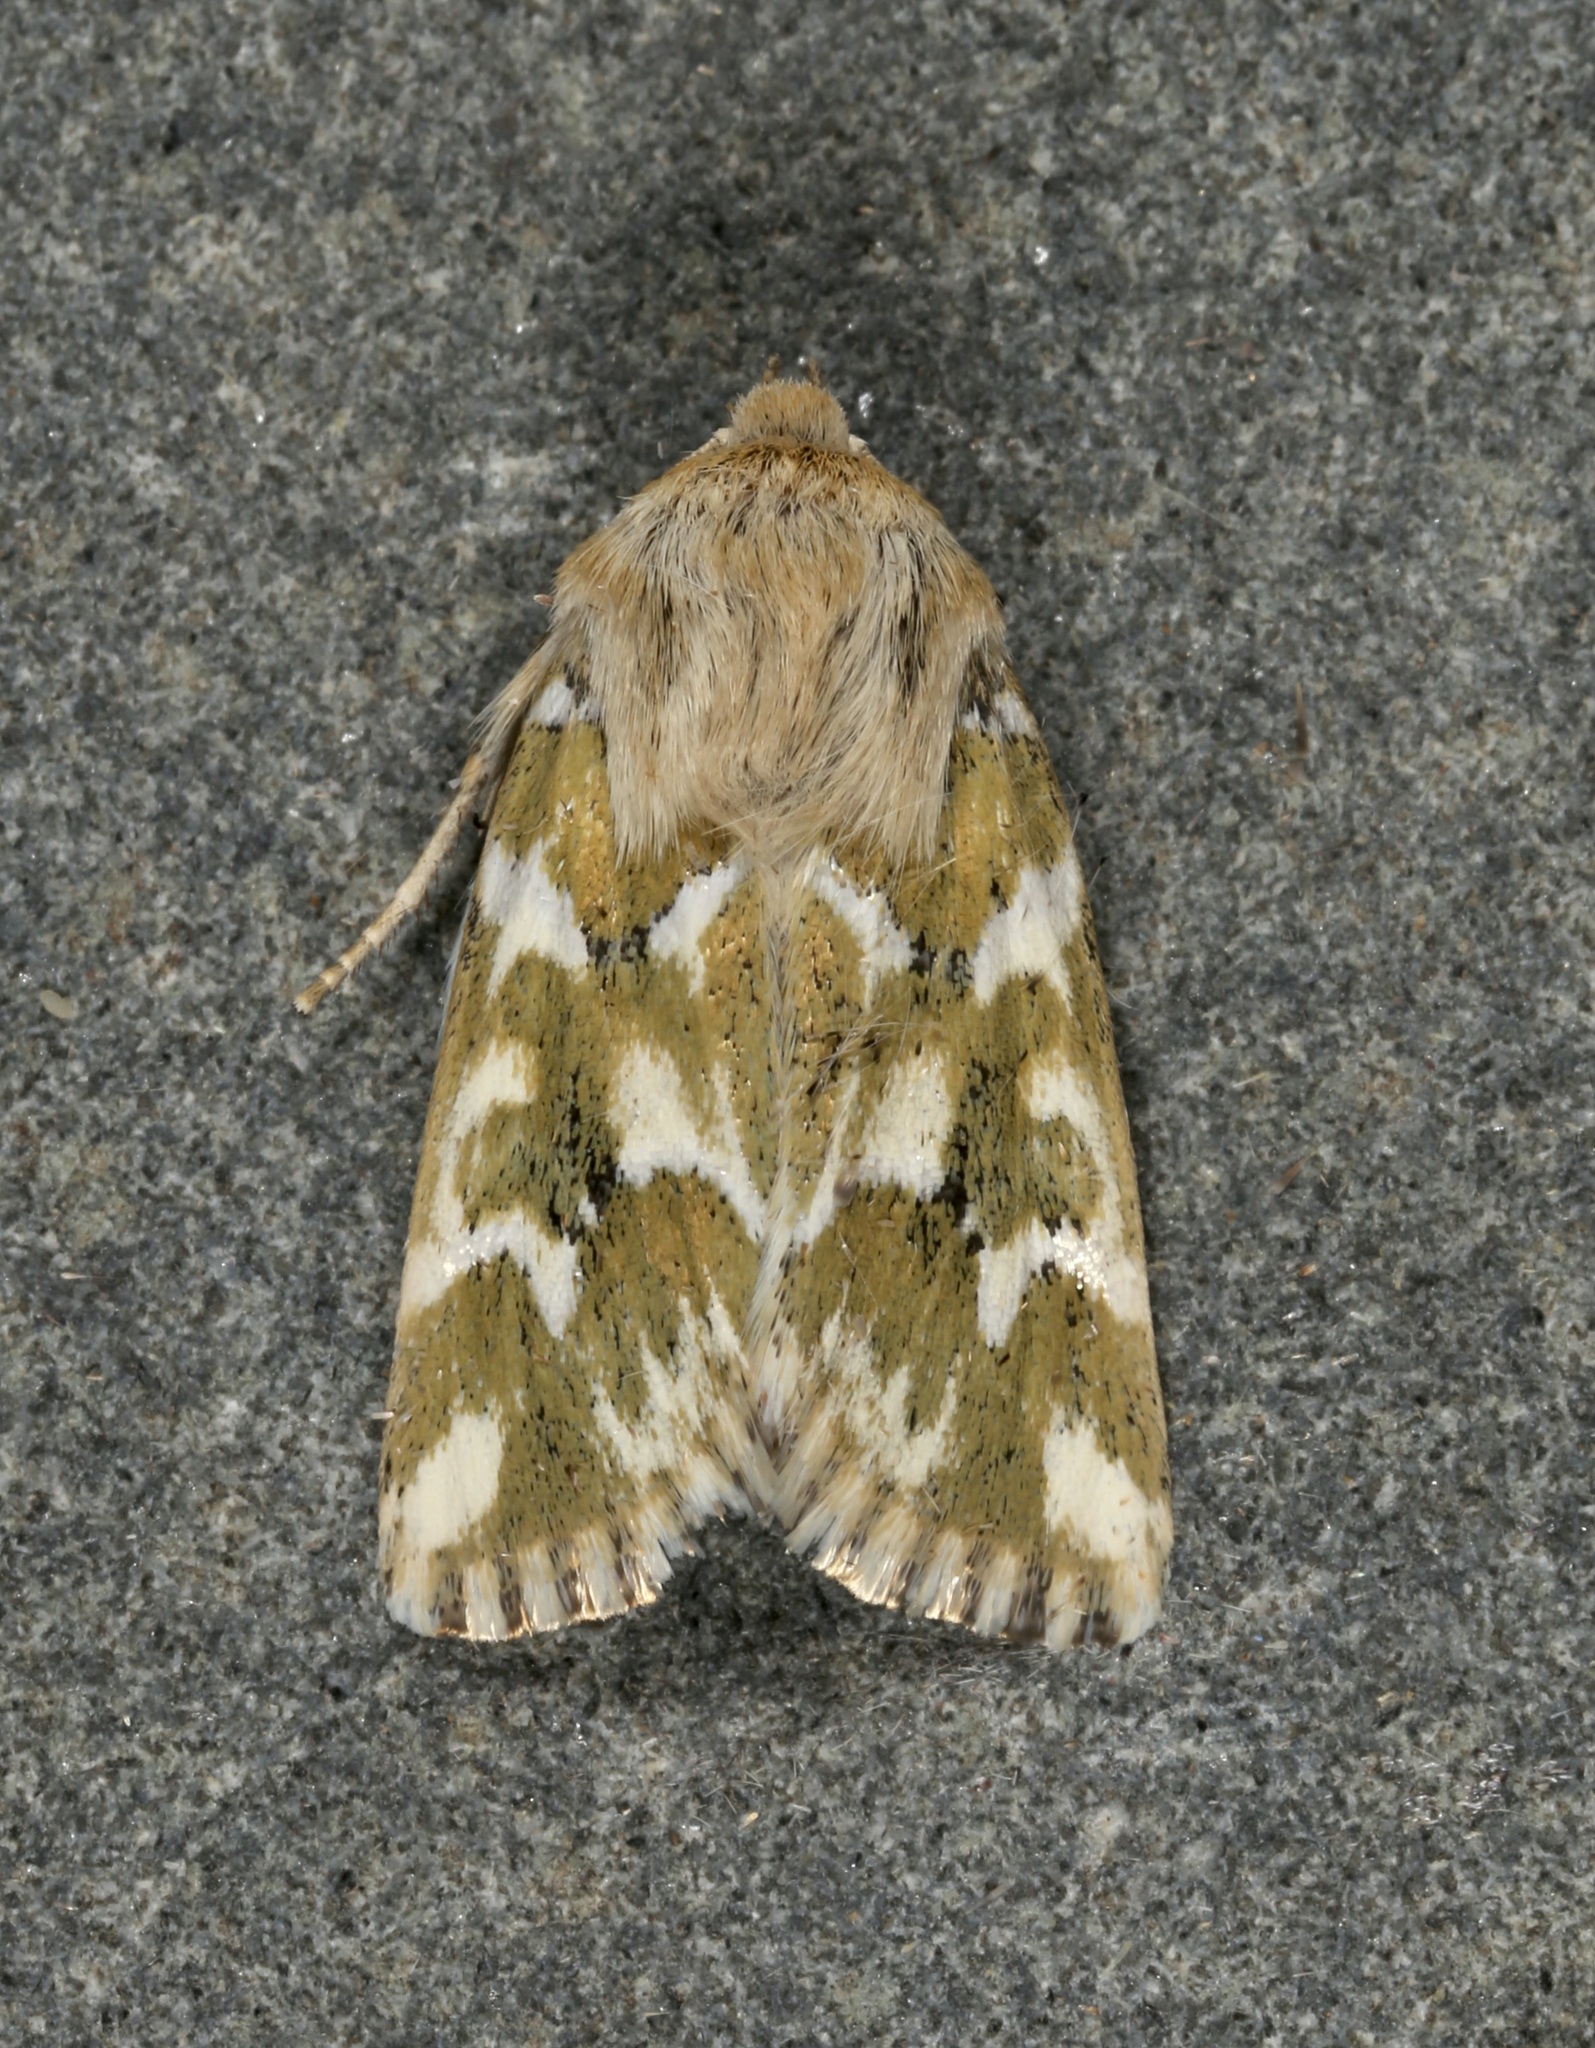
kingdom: Animalia
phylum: Arthropoda
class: Insecta
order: Lepidoptera
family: Noctuidae
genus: Schinia
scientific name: Schinia meadi
